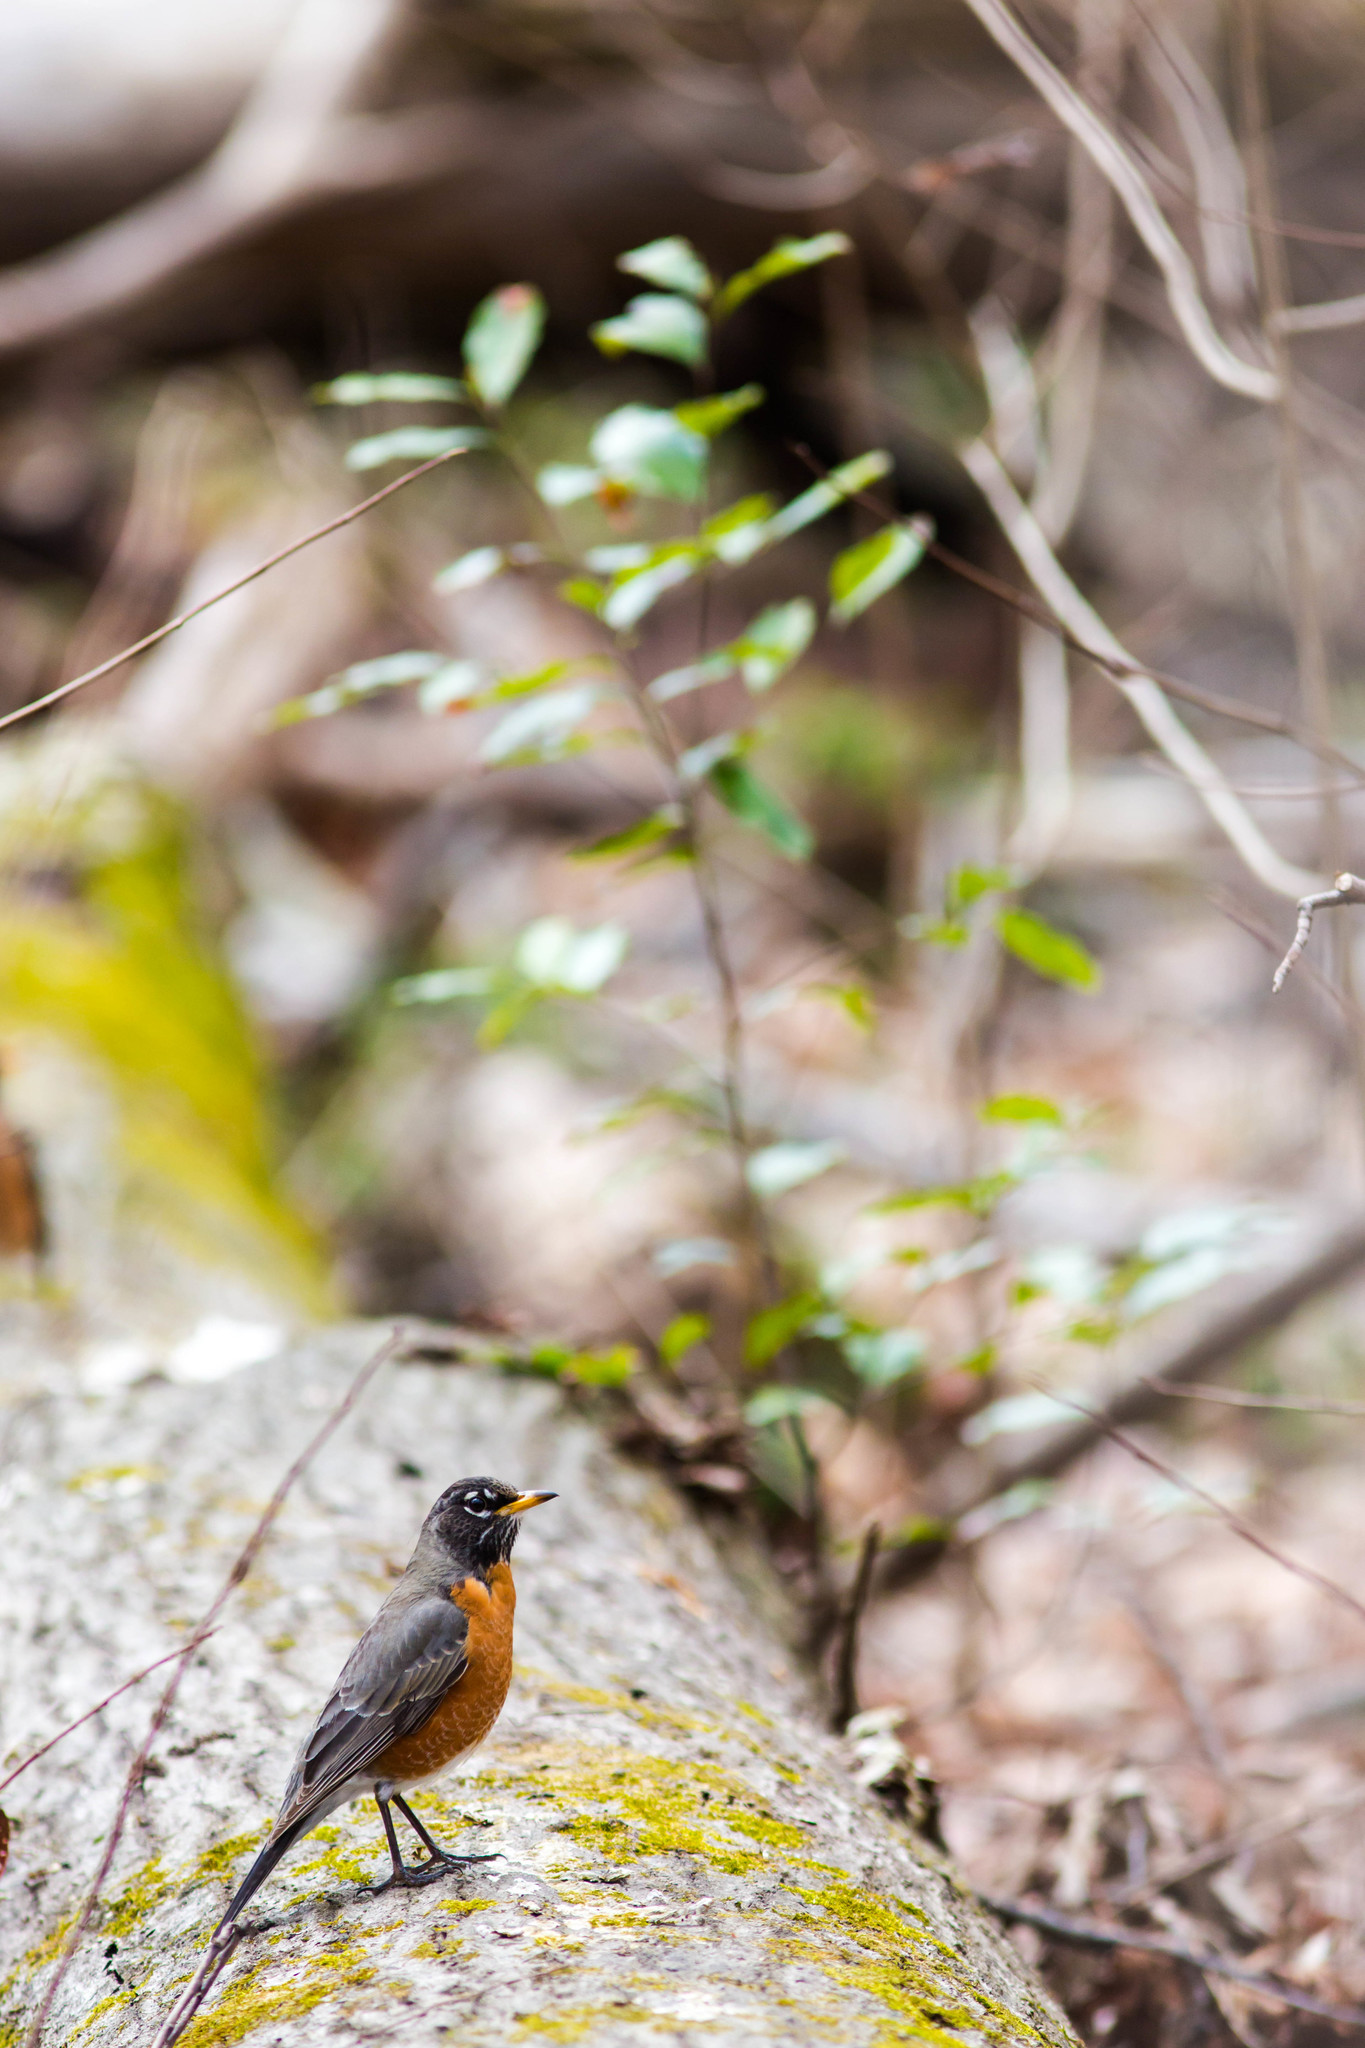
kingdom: Animalia
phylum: Chordata
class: Aves
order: Passeriformes
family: Turdidae
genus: Turdus
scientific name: Turdus migratorius
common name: American robin
